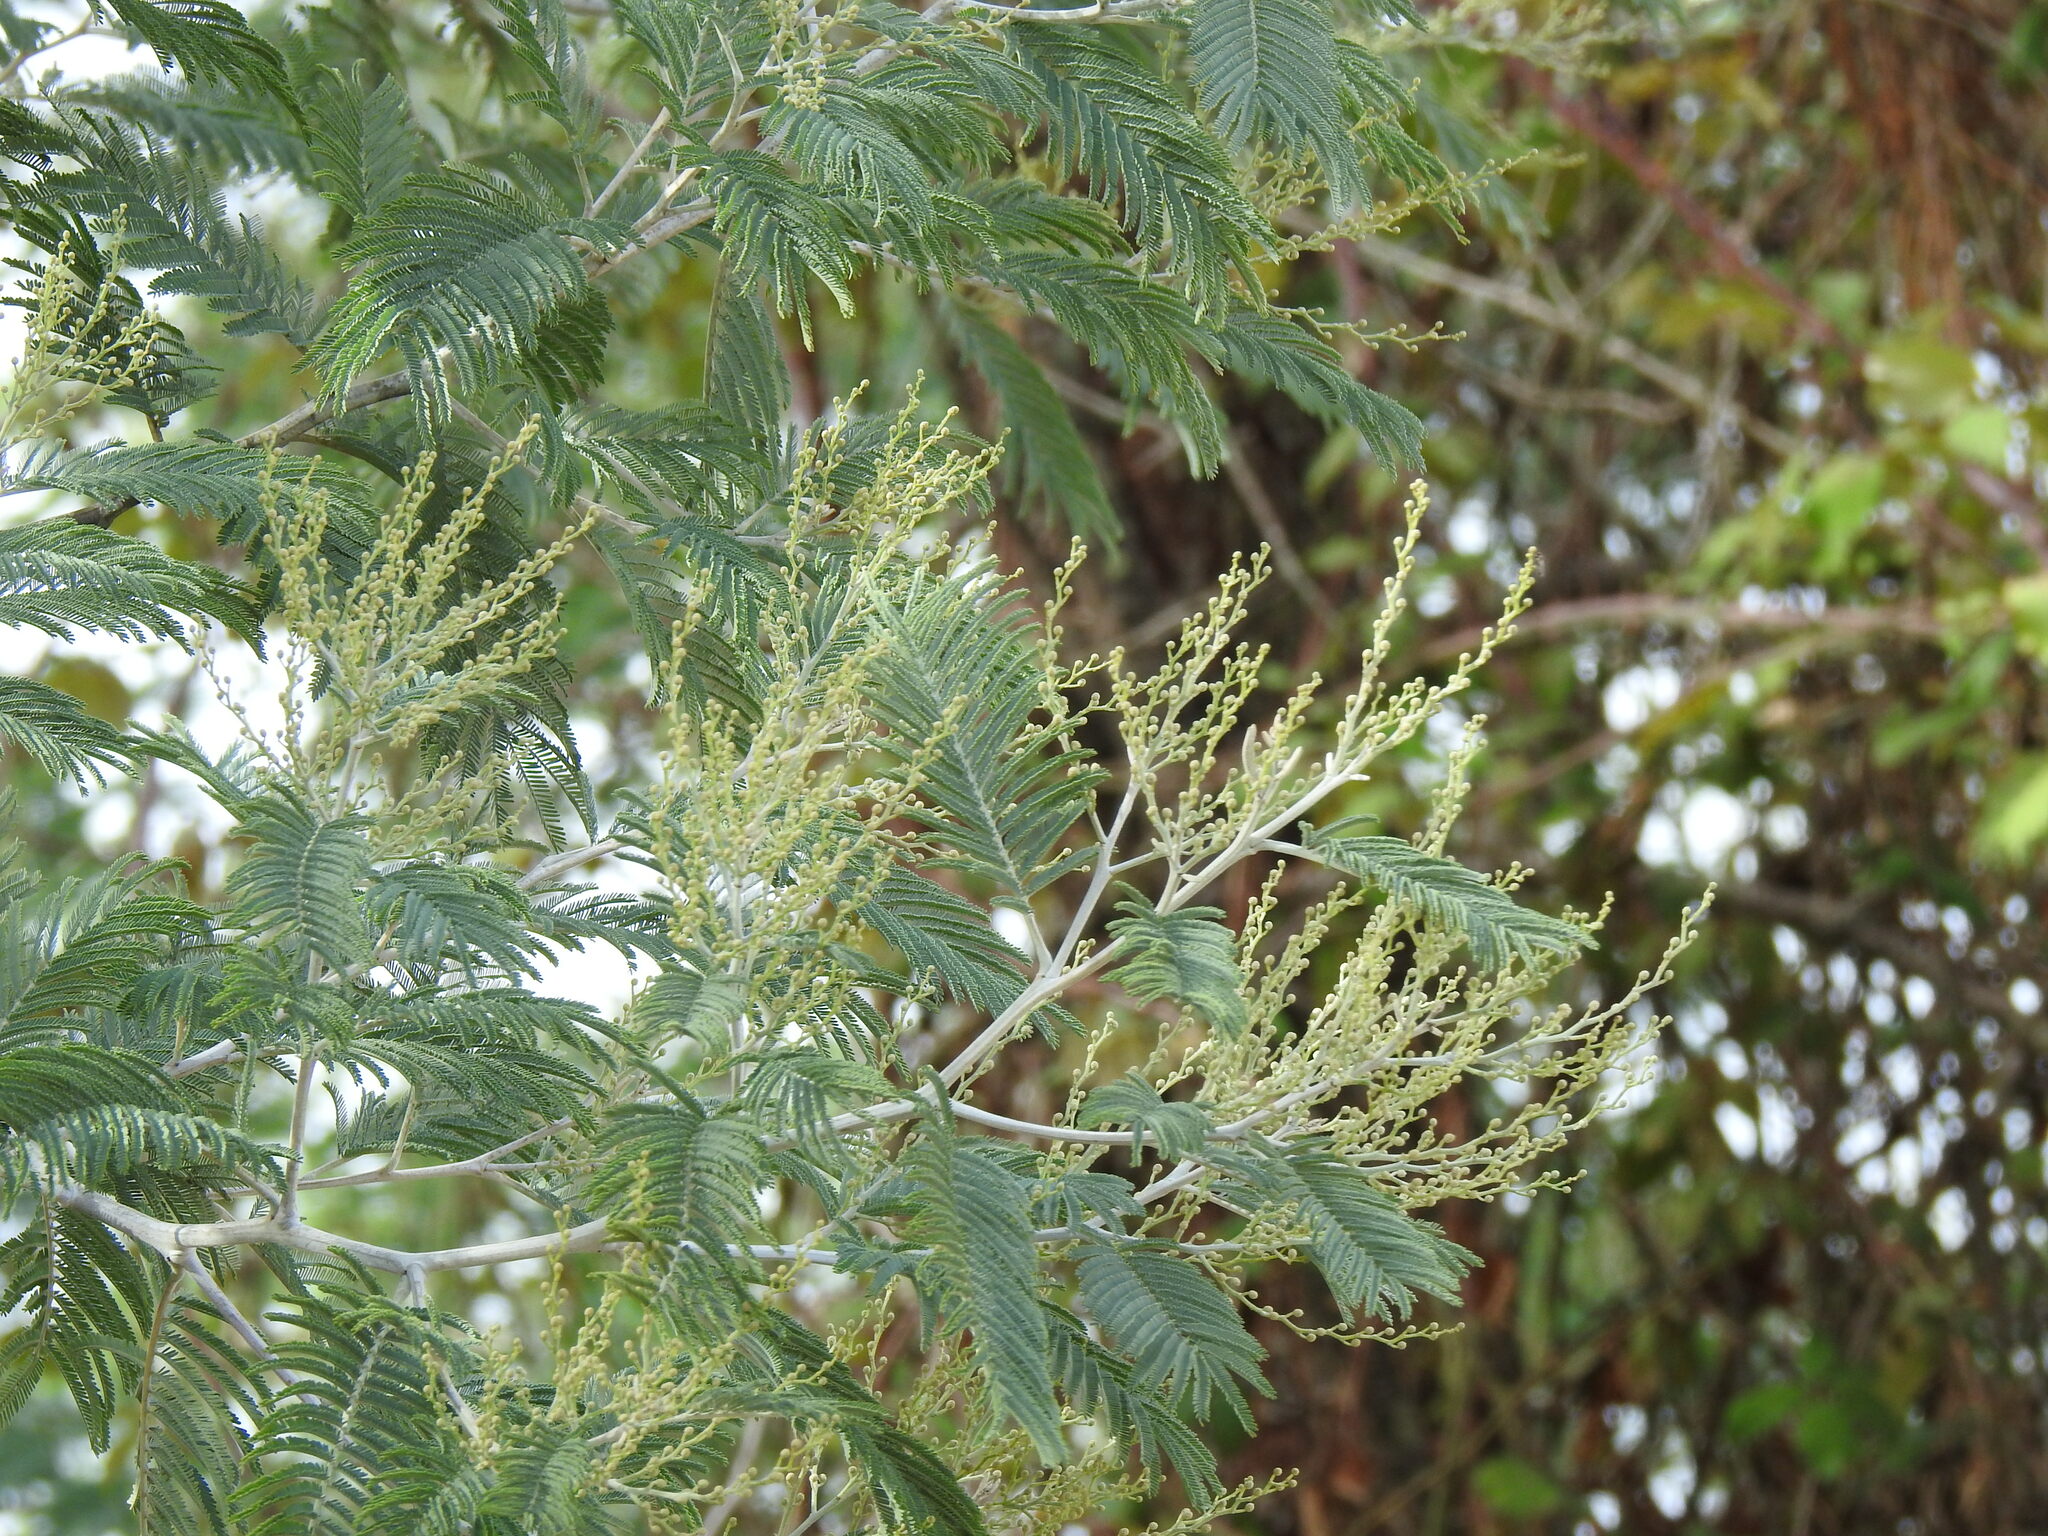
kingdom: Plantae
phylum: Tracheophyta
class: Magnoliopsida
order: Fabales
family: Fabaceae
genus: Acacia
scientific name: Acacia dealbata
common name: Silver wattle
